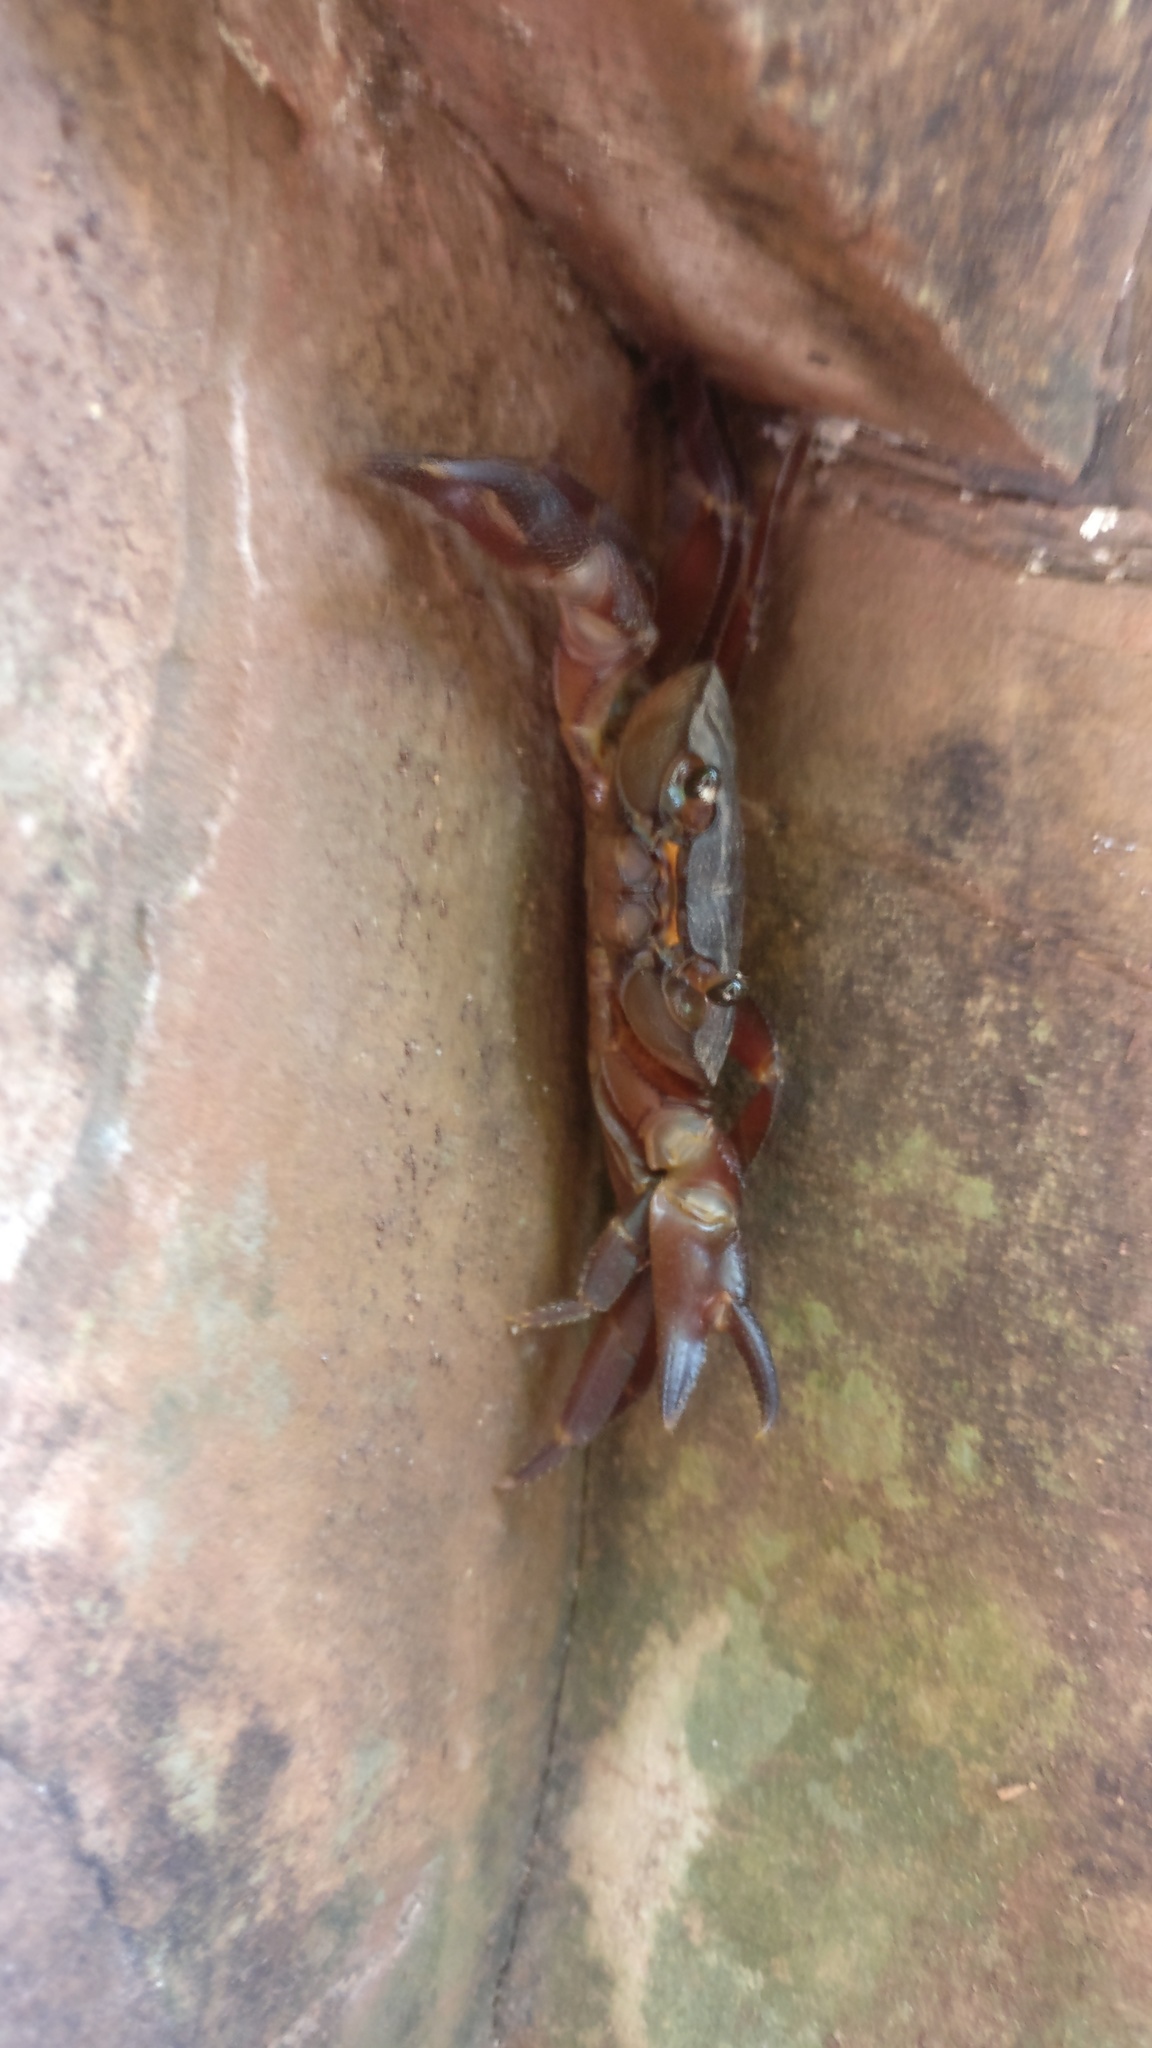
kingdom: Animalia
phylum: Arthropoda
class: Malacostraca
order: Decapoda
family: Gecarcinucidae
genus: Barusa
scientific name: Barusa mccani
